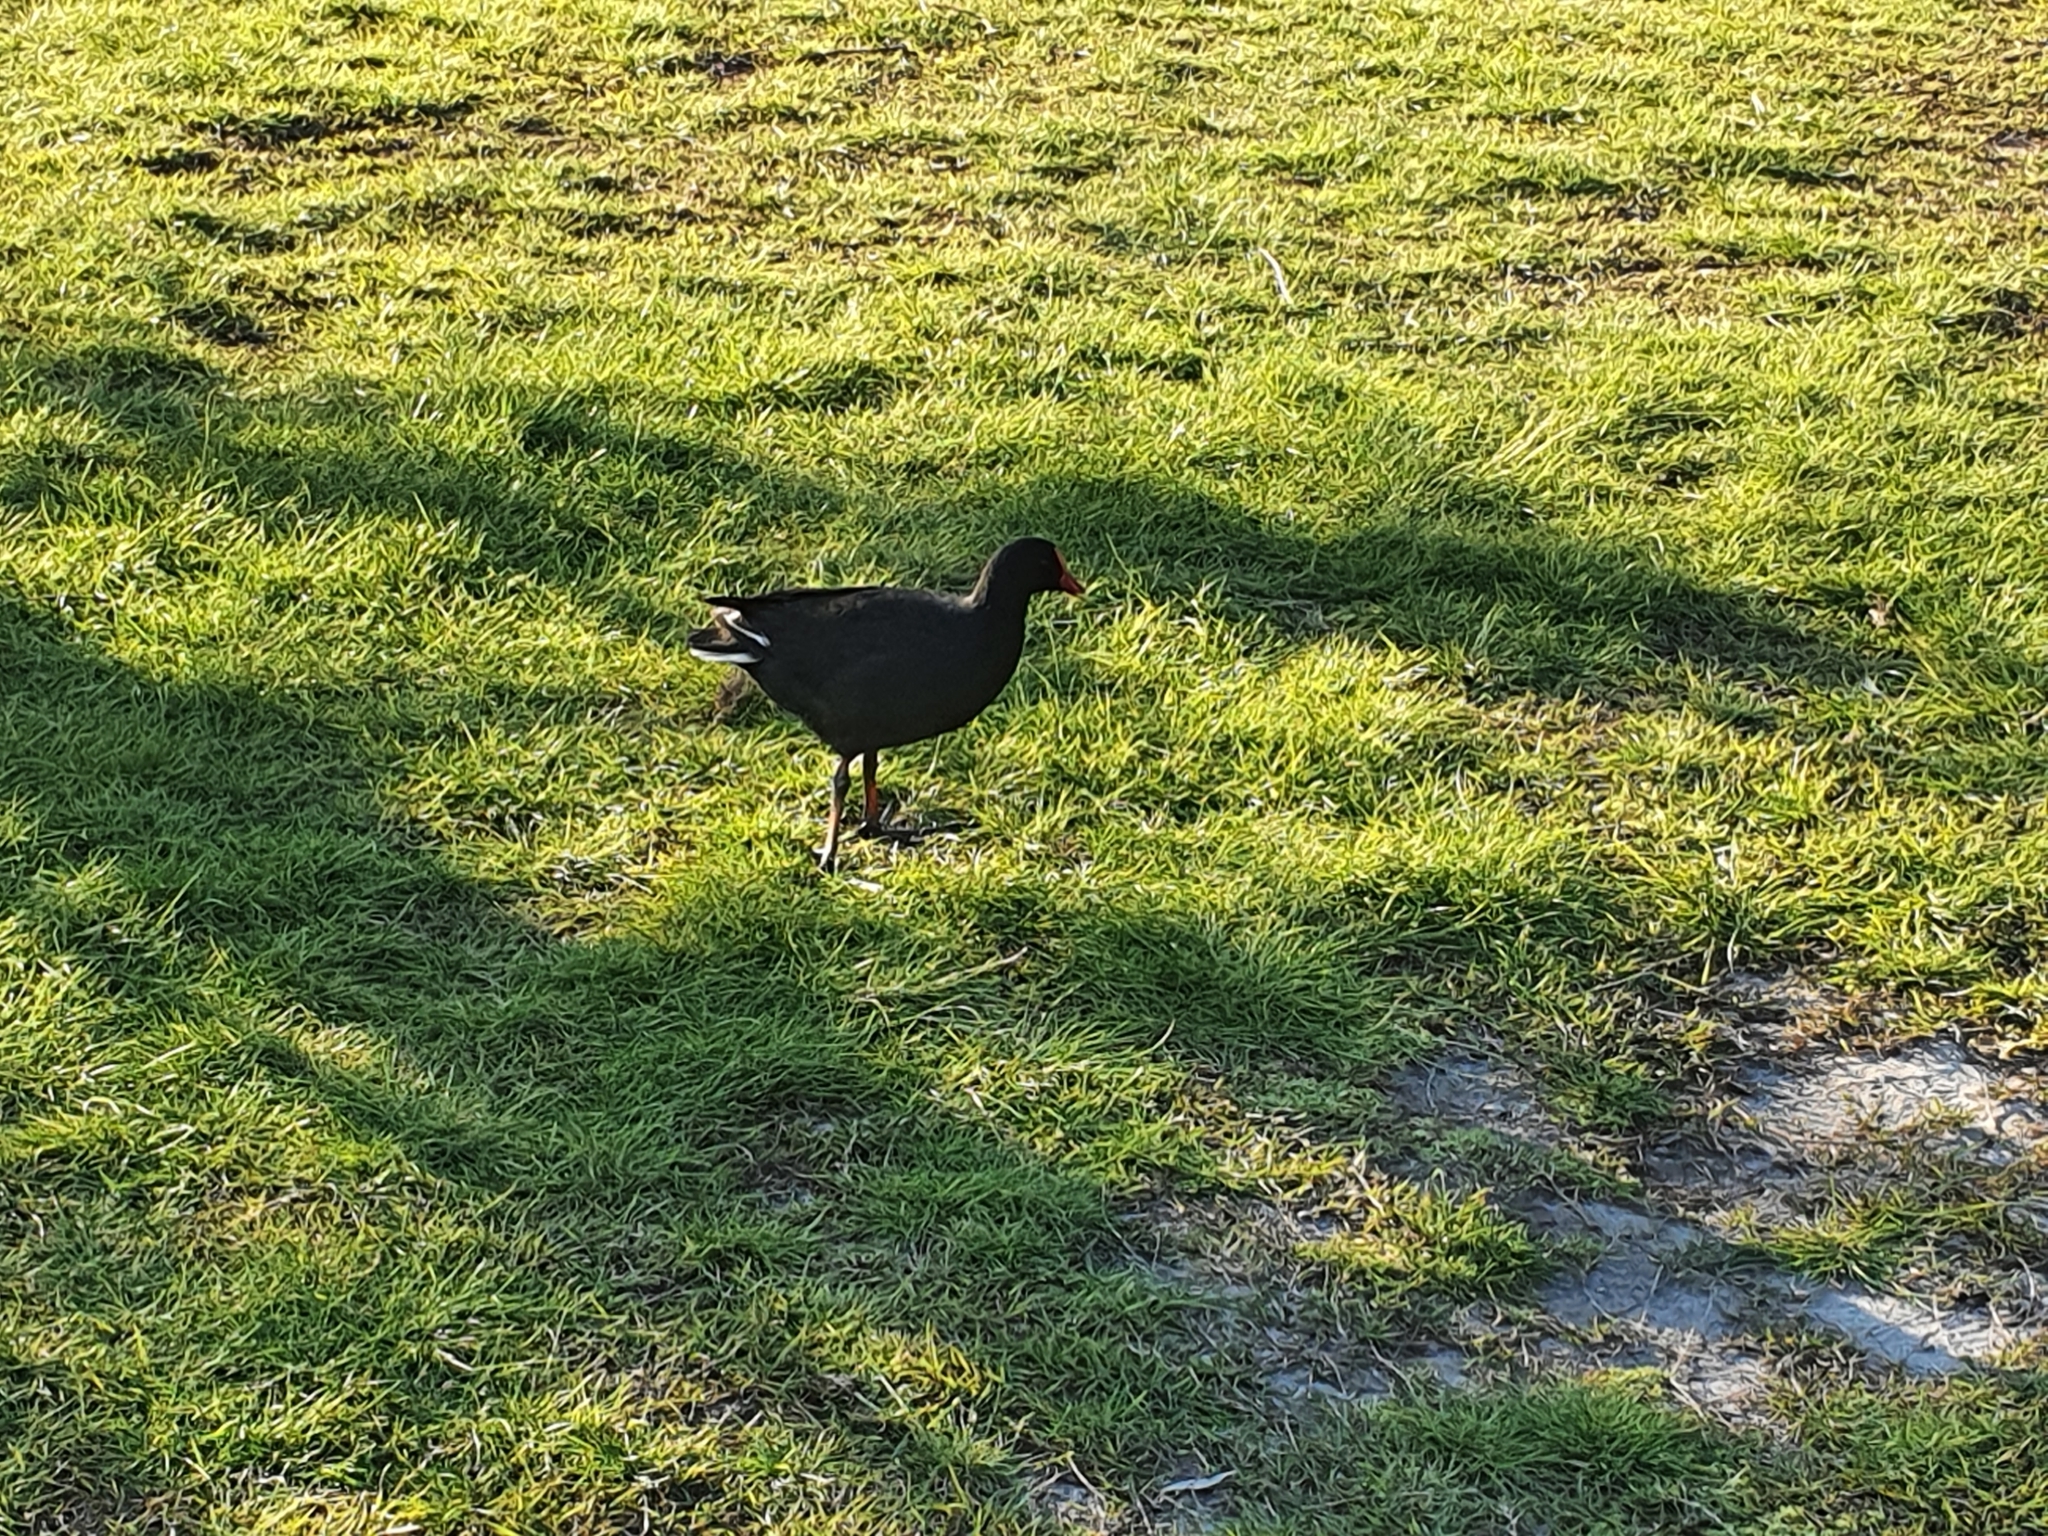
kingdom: Animalia
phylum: Chordata
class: Aves
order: Gruiformes
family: Rallidae
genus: Gallinula
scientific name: Gallinula tenebrosa
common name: Dusky moorhen
